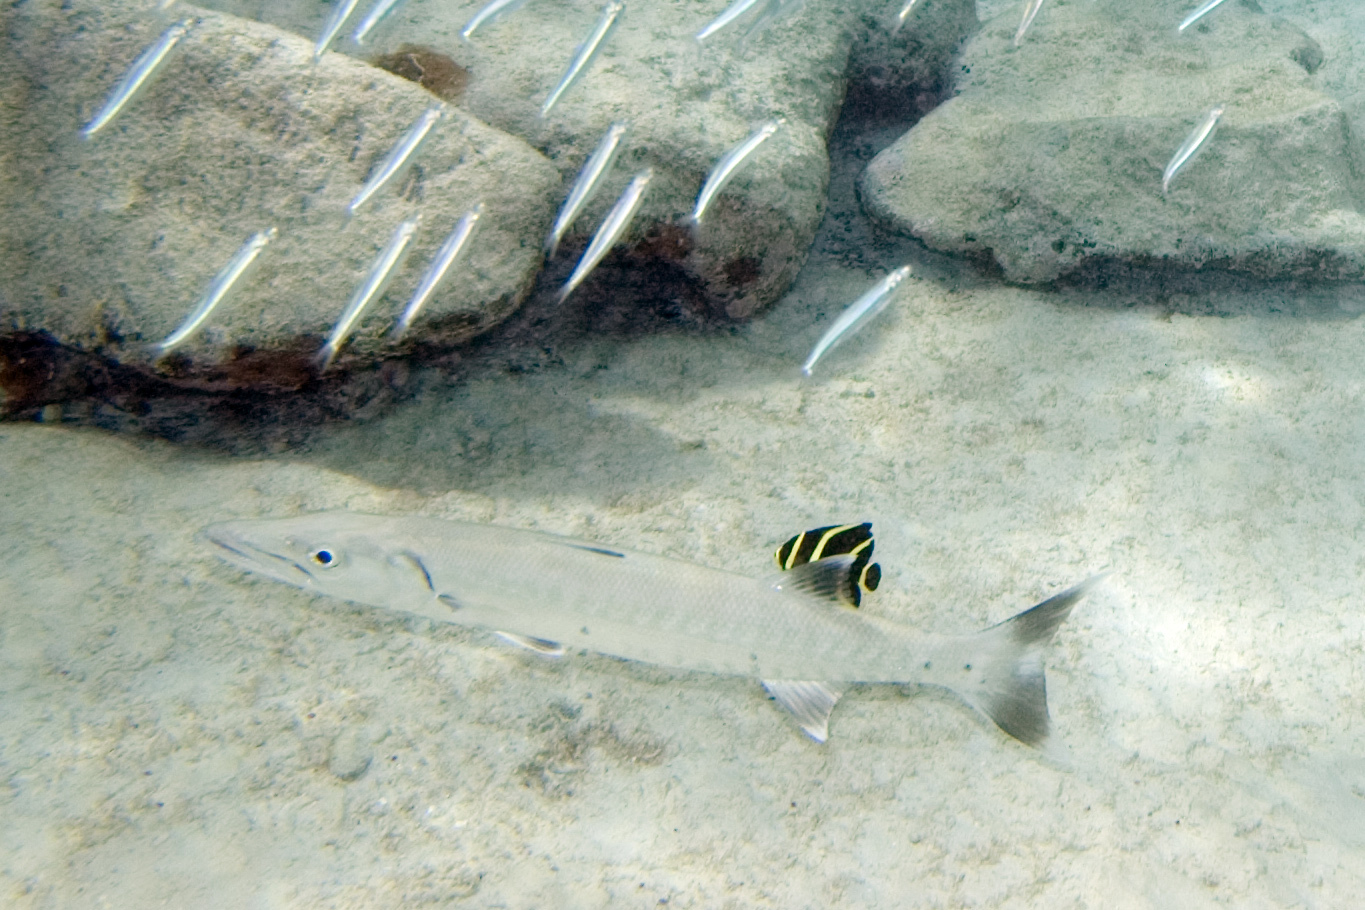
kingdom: Animalia
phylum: Chordata
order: Perciformes
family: Sphyraenidae
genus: Sphyraena
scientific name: Sphyraena barracuda
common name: Great barracuda
